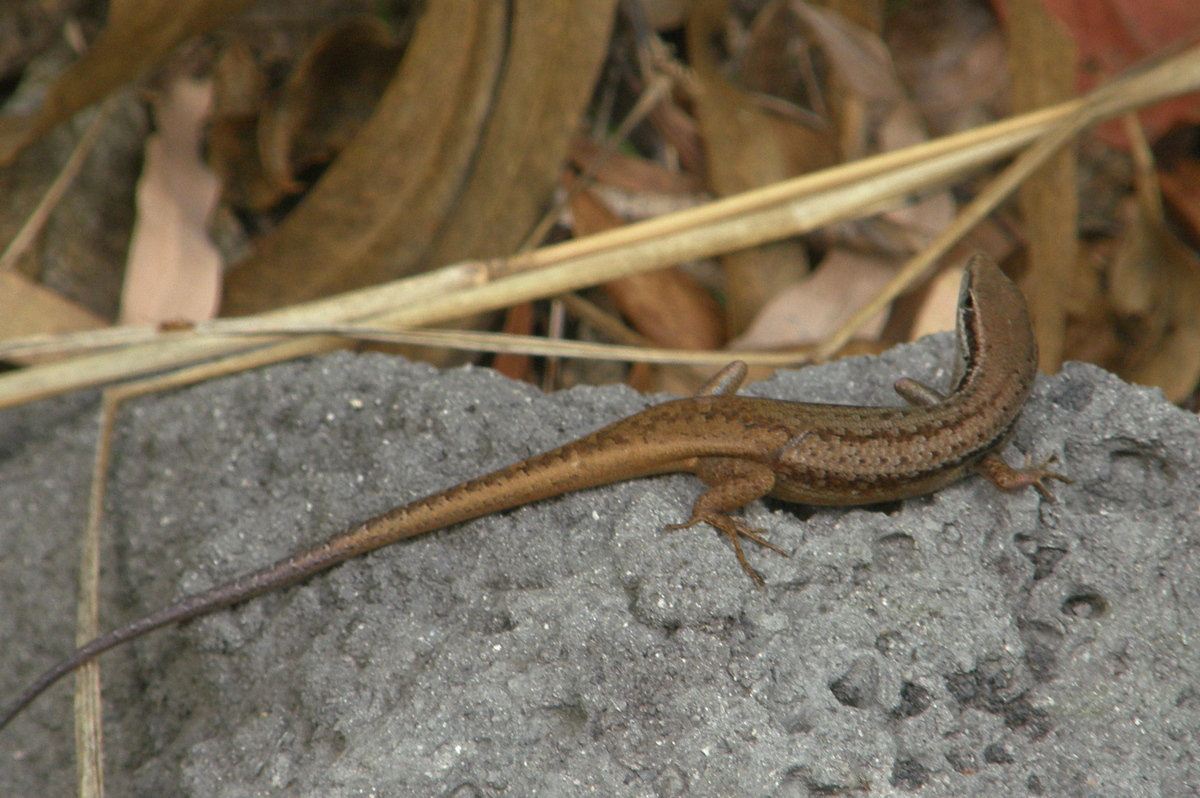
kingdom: Animalia
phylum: Chordata
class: Squamata
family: Scincidae
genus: Carlia
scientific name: Carlia longipes
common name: Closed-litter rainbow-skink
